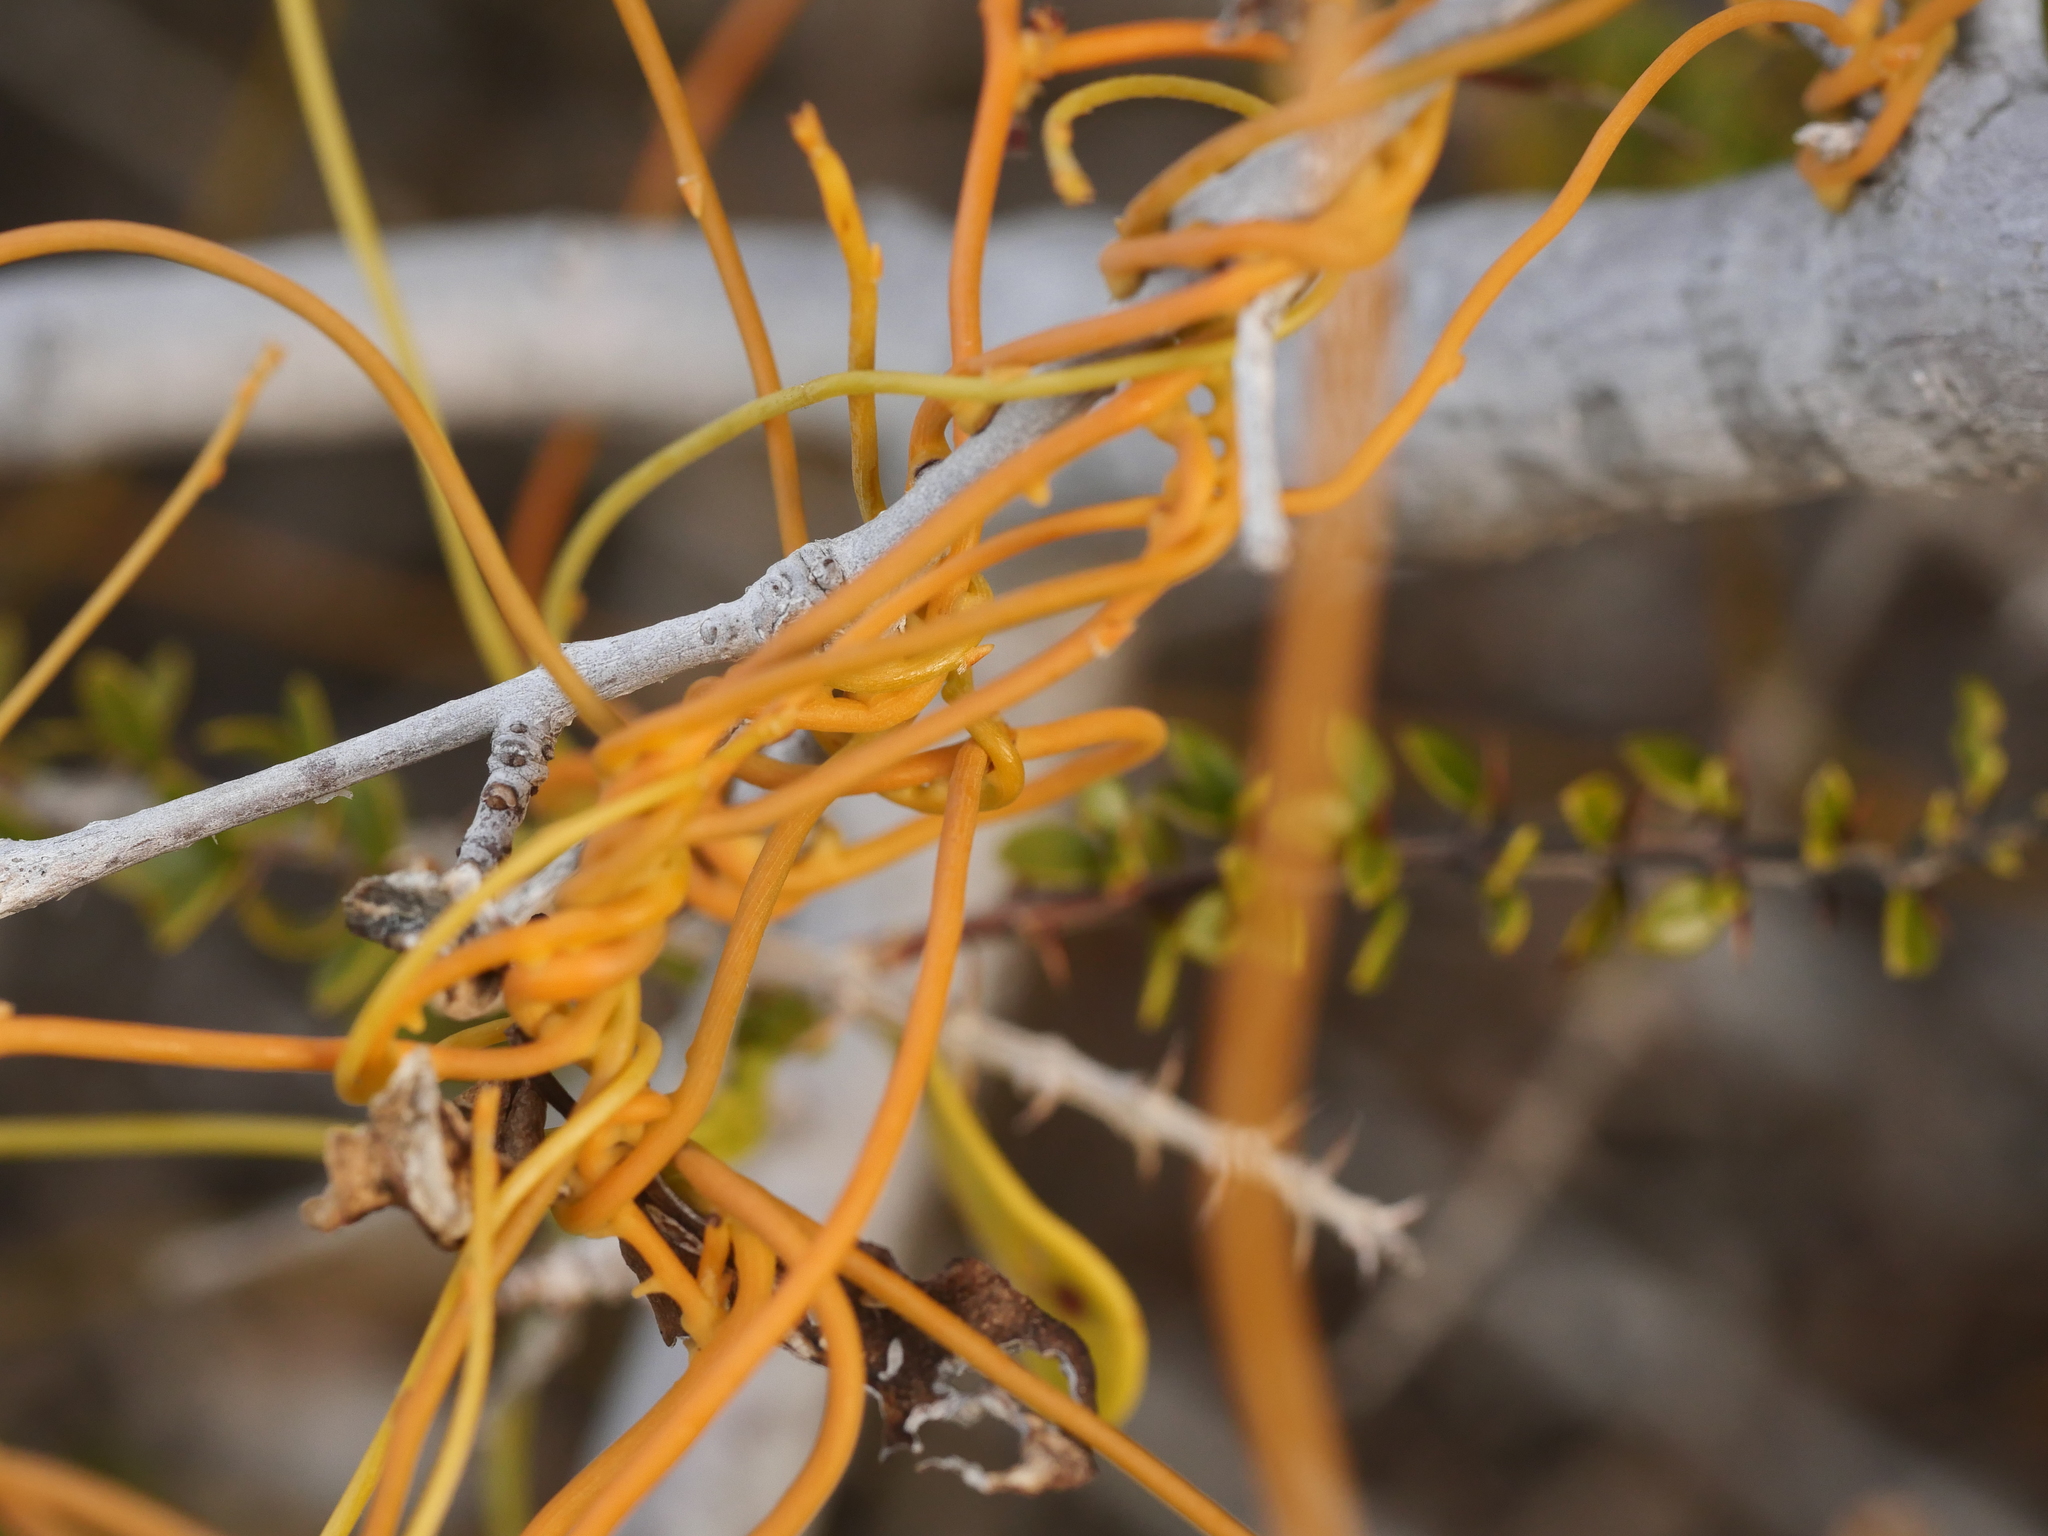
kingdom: Plantae
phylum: Tracheophyta
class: Magnoliopsida
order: Laurales
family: Lauraceae
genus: Cassytha
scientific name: Cassytha filiformis
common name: Dodder-laurel
